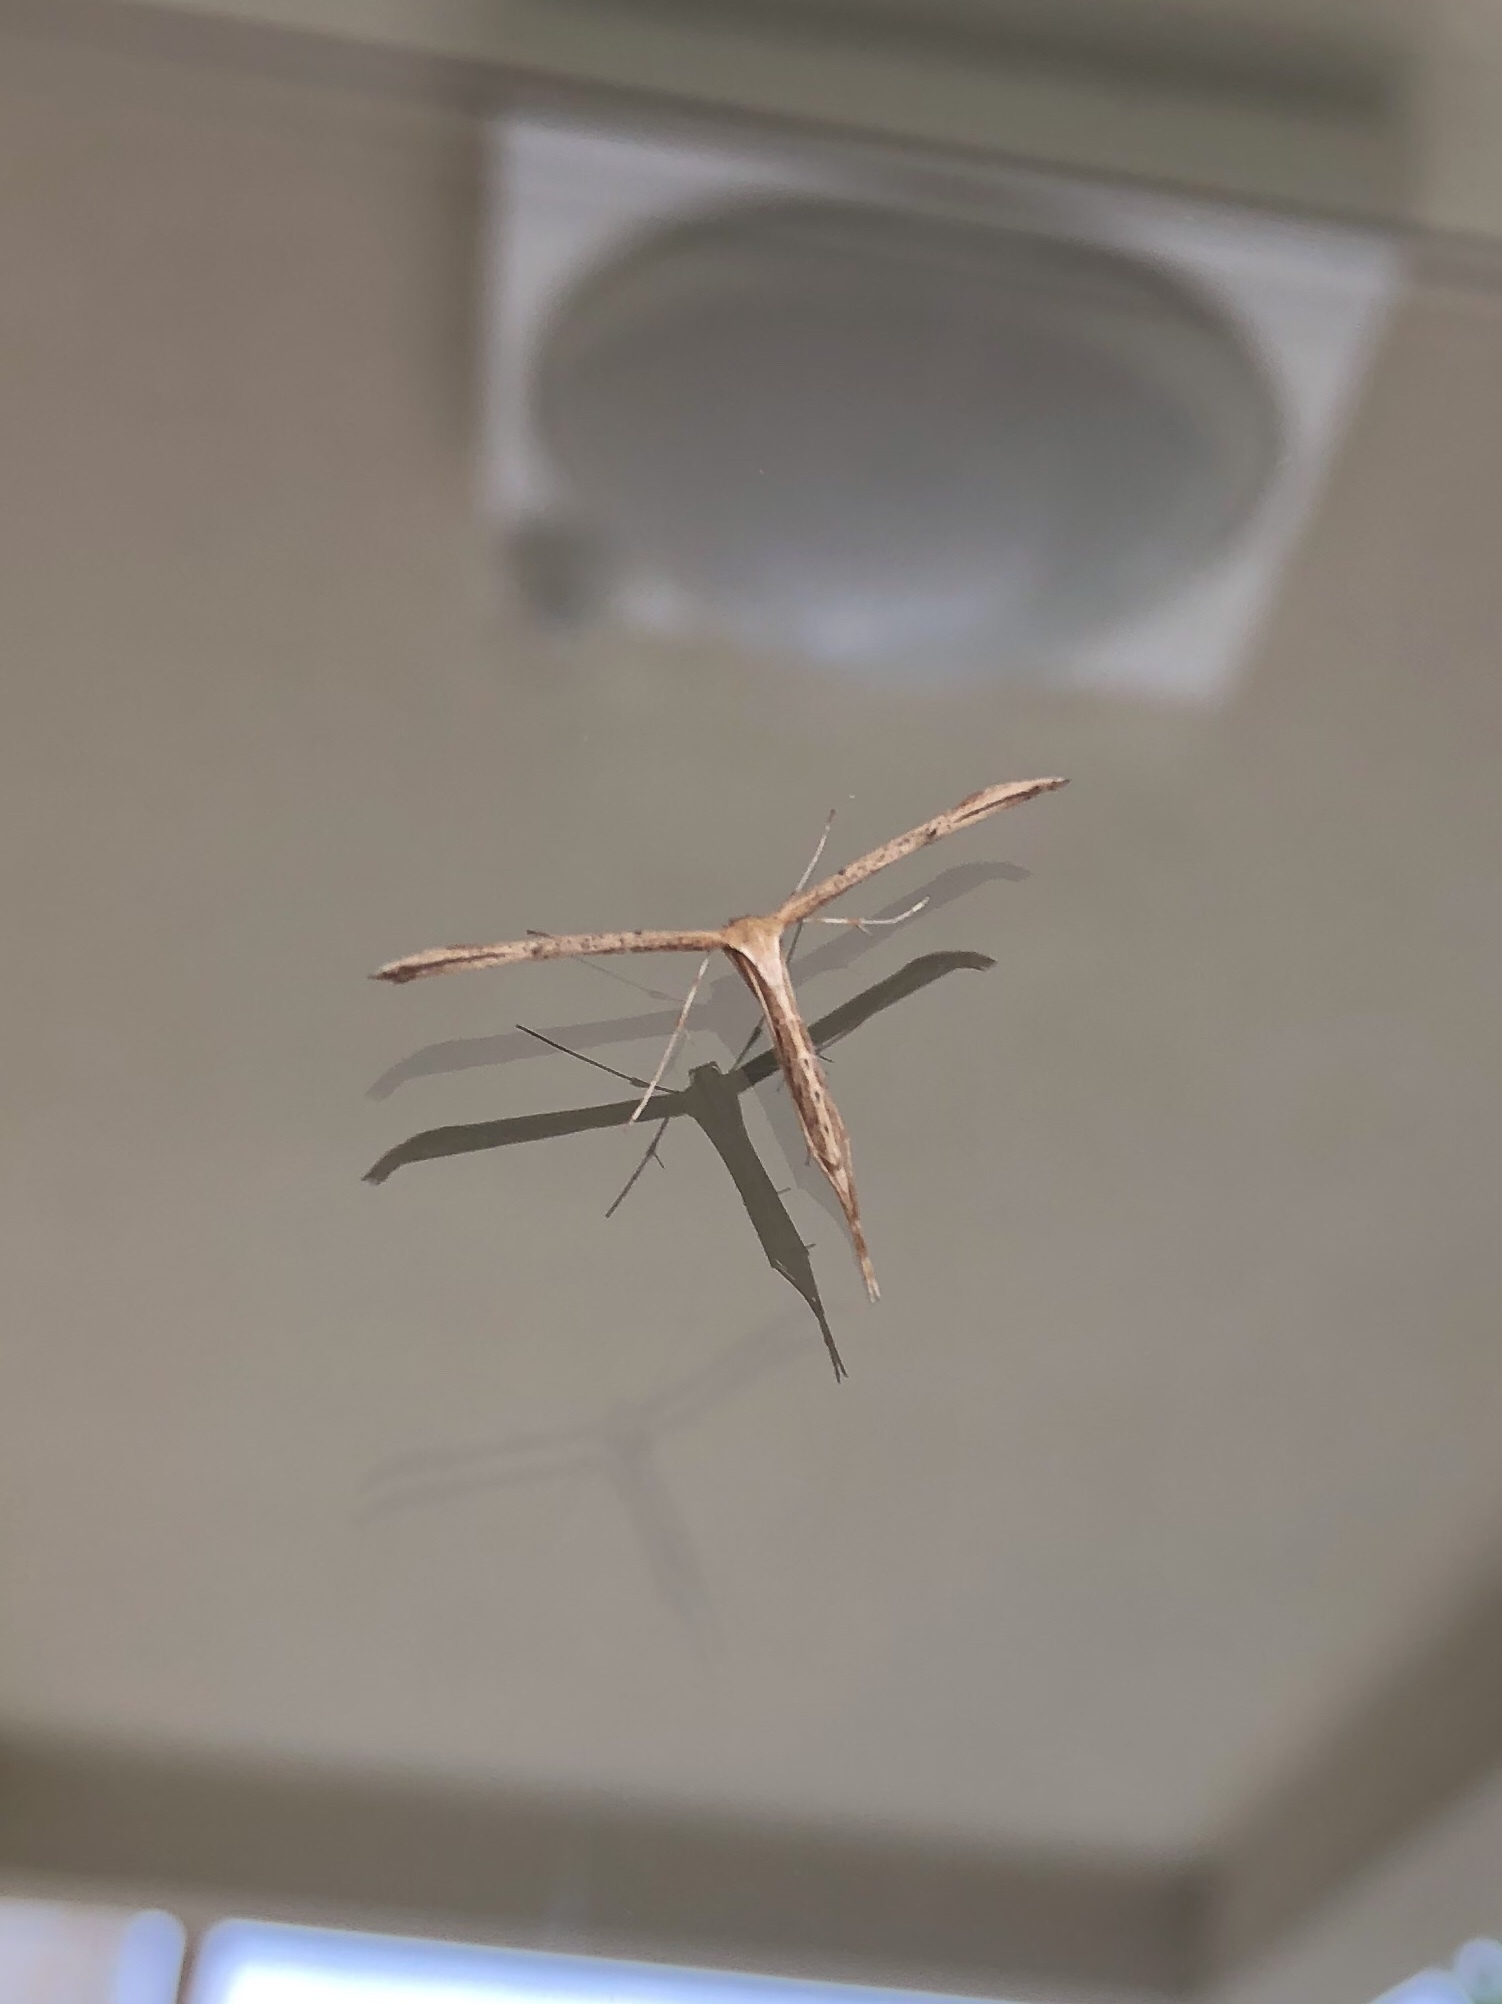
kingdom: Animalia
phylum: Arthropoda
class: Insecta
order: Lepidoptera
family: Pterophoridae
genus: Emmelina
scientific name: Emmelina monodactyla
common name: Common plume
